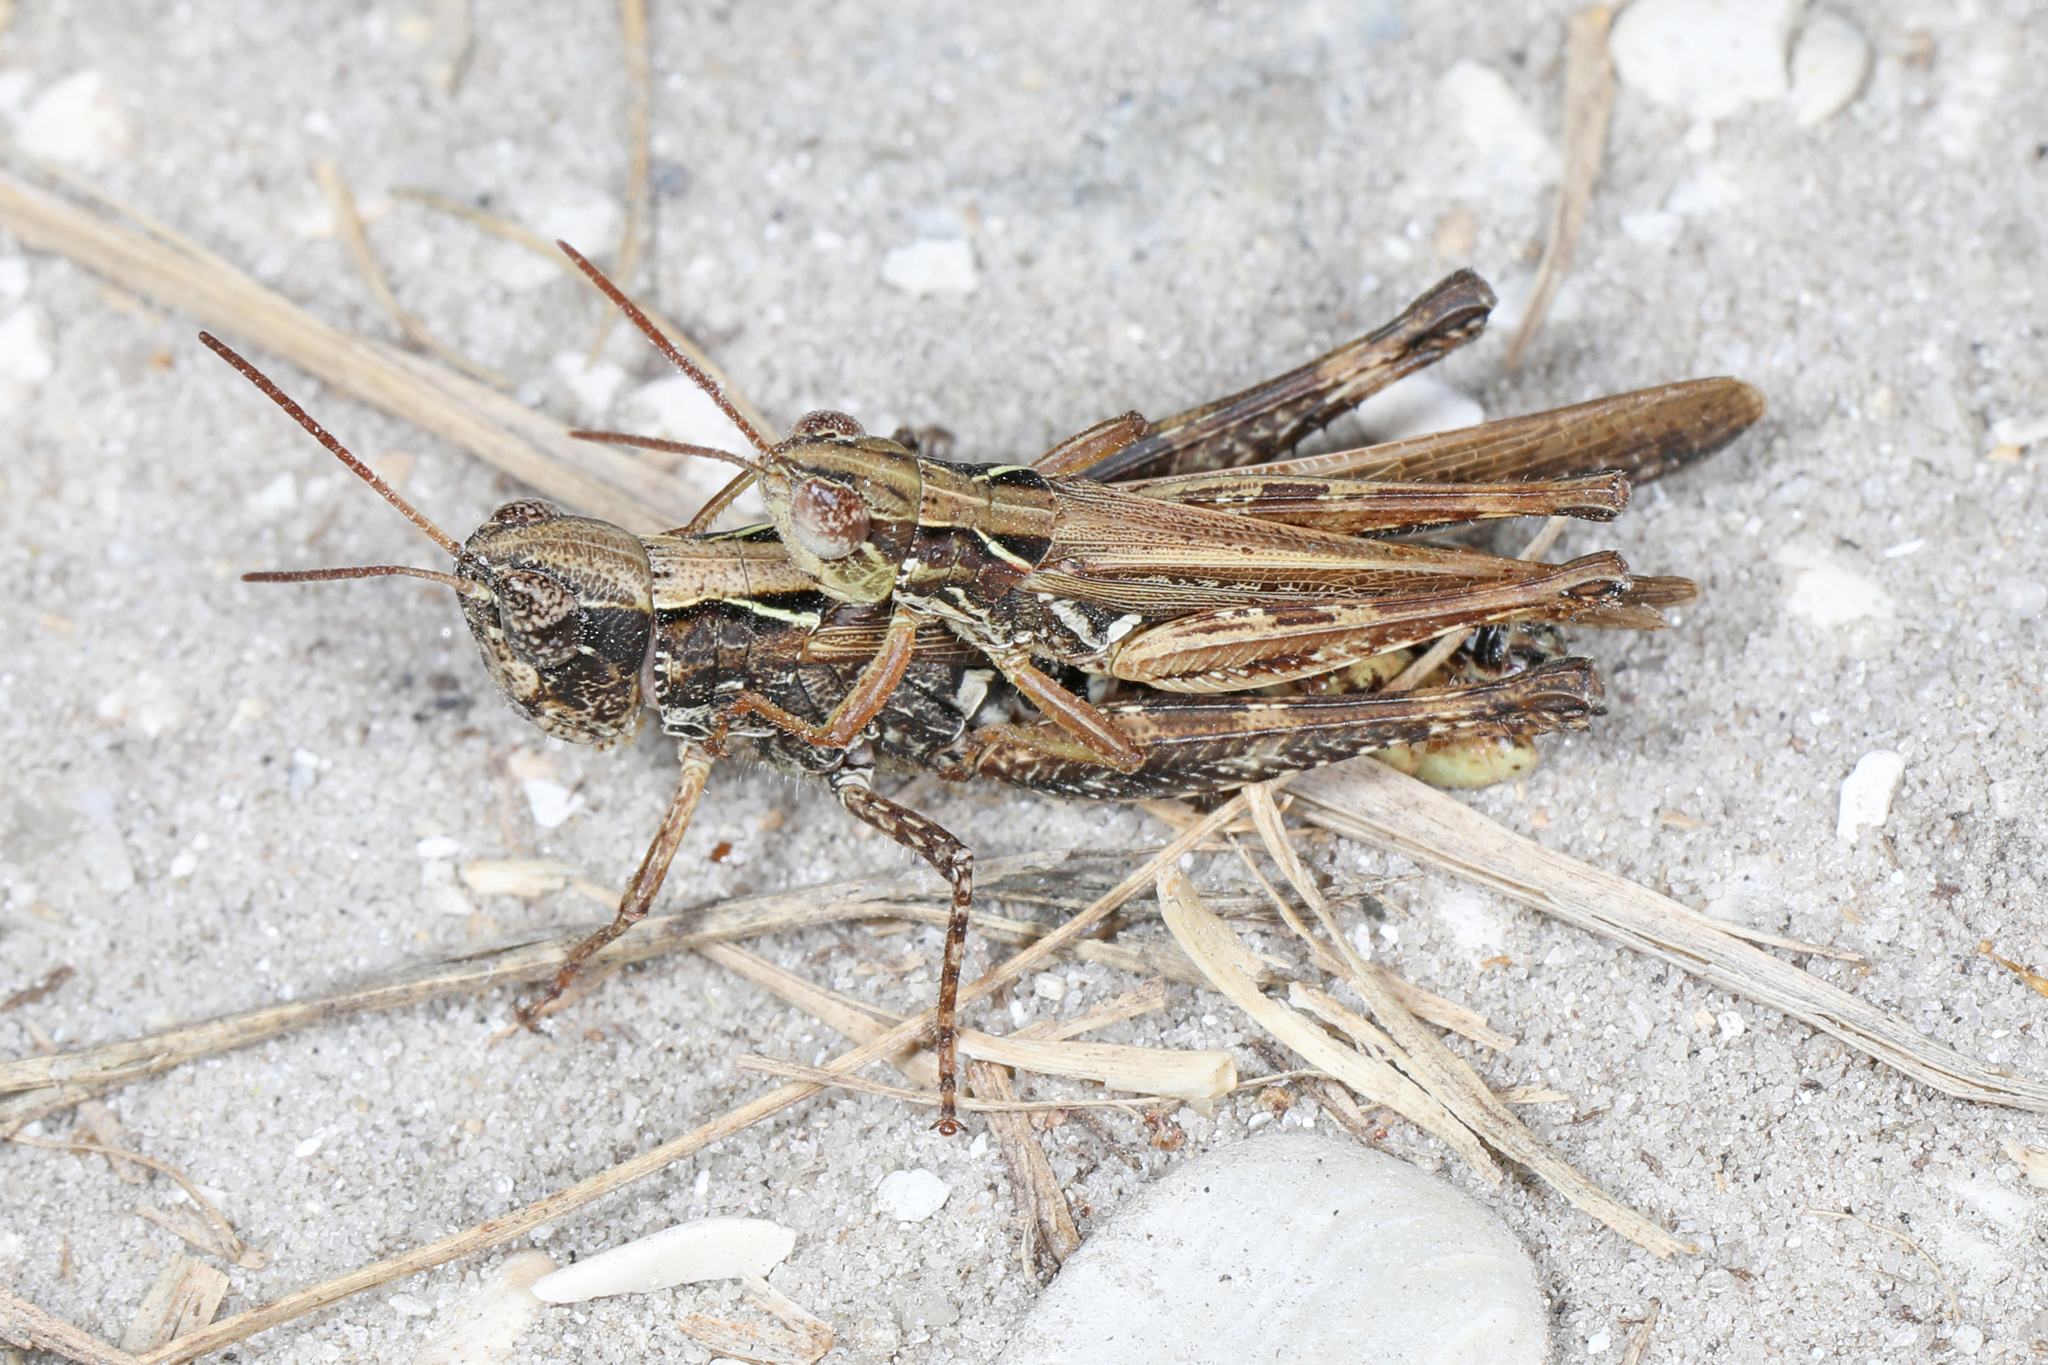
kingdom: Animalia
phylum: Arthropoda
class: Insecta
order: Orthoptera
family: Acrididae
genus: Orphulella
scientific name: Orphulella pelidna
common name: Spotted-wing grasshopper
